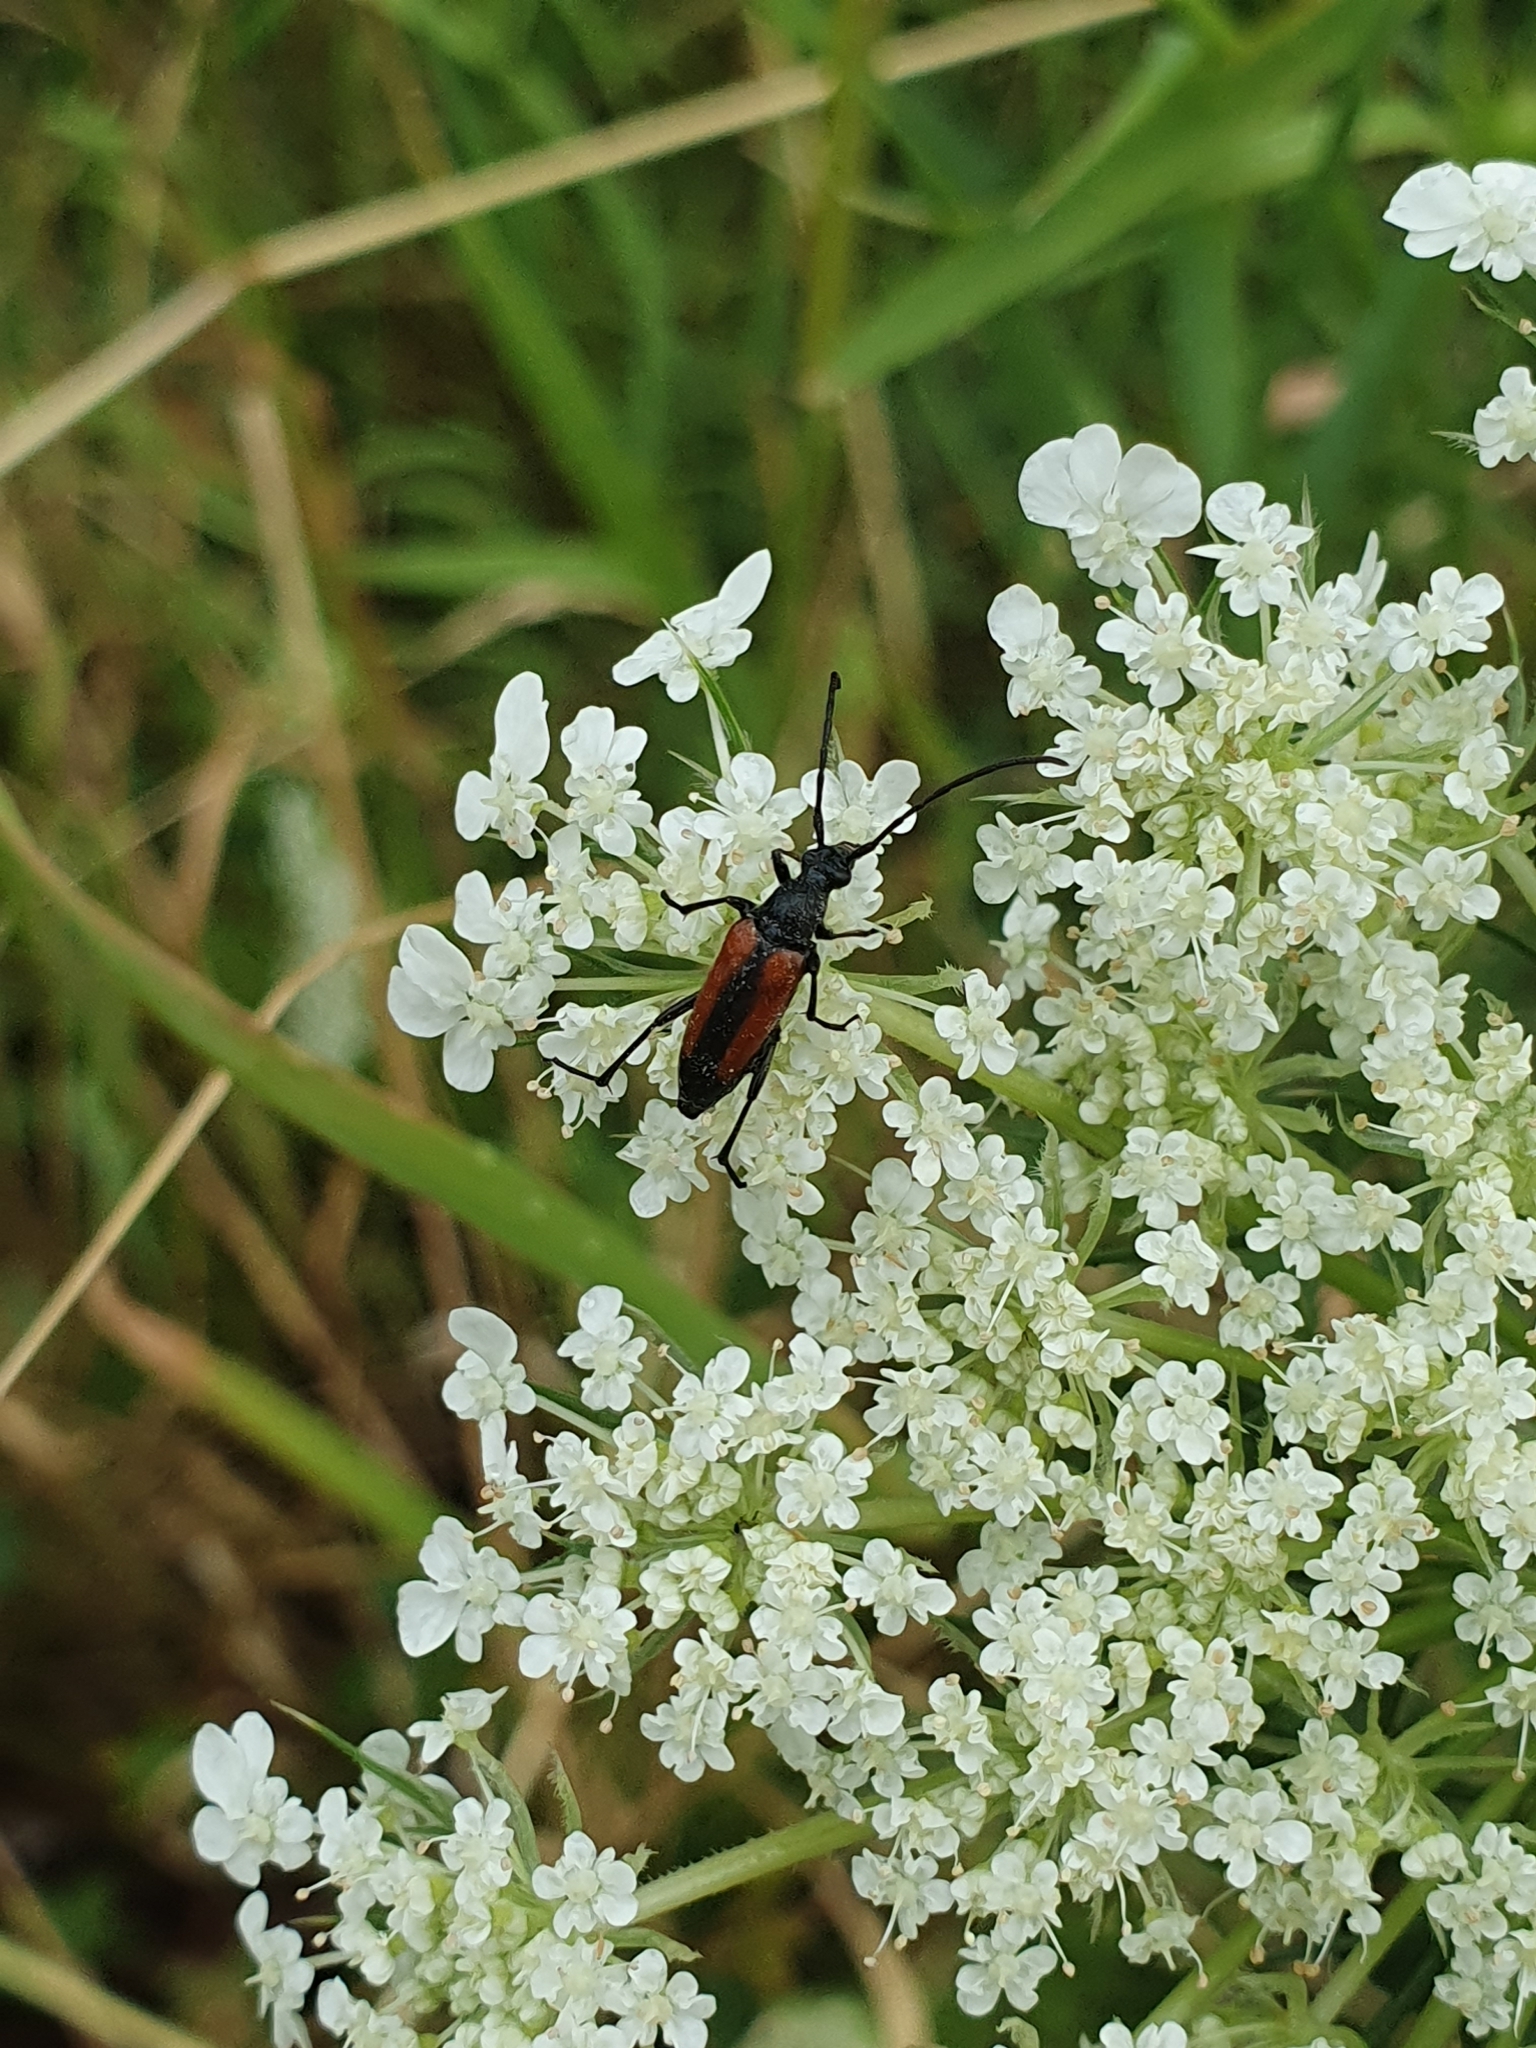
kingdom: Animalia
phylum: Arthropoda
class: Insecta
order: Coleoptera
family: Cerambycidae
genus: Stenurella
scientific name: Stenurella melanura
